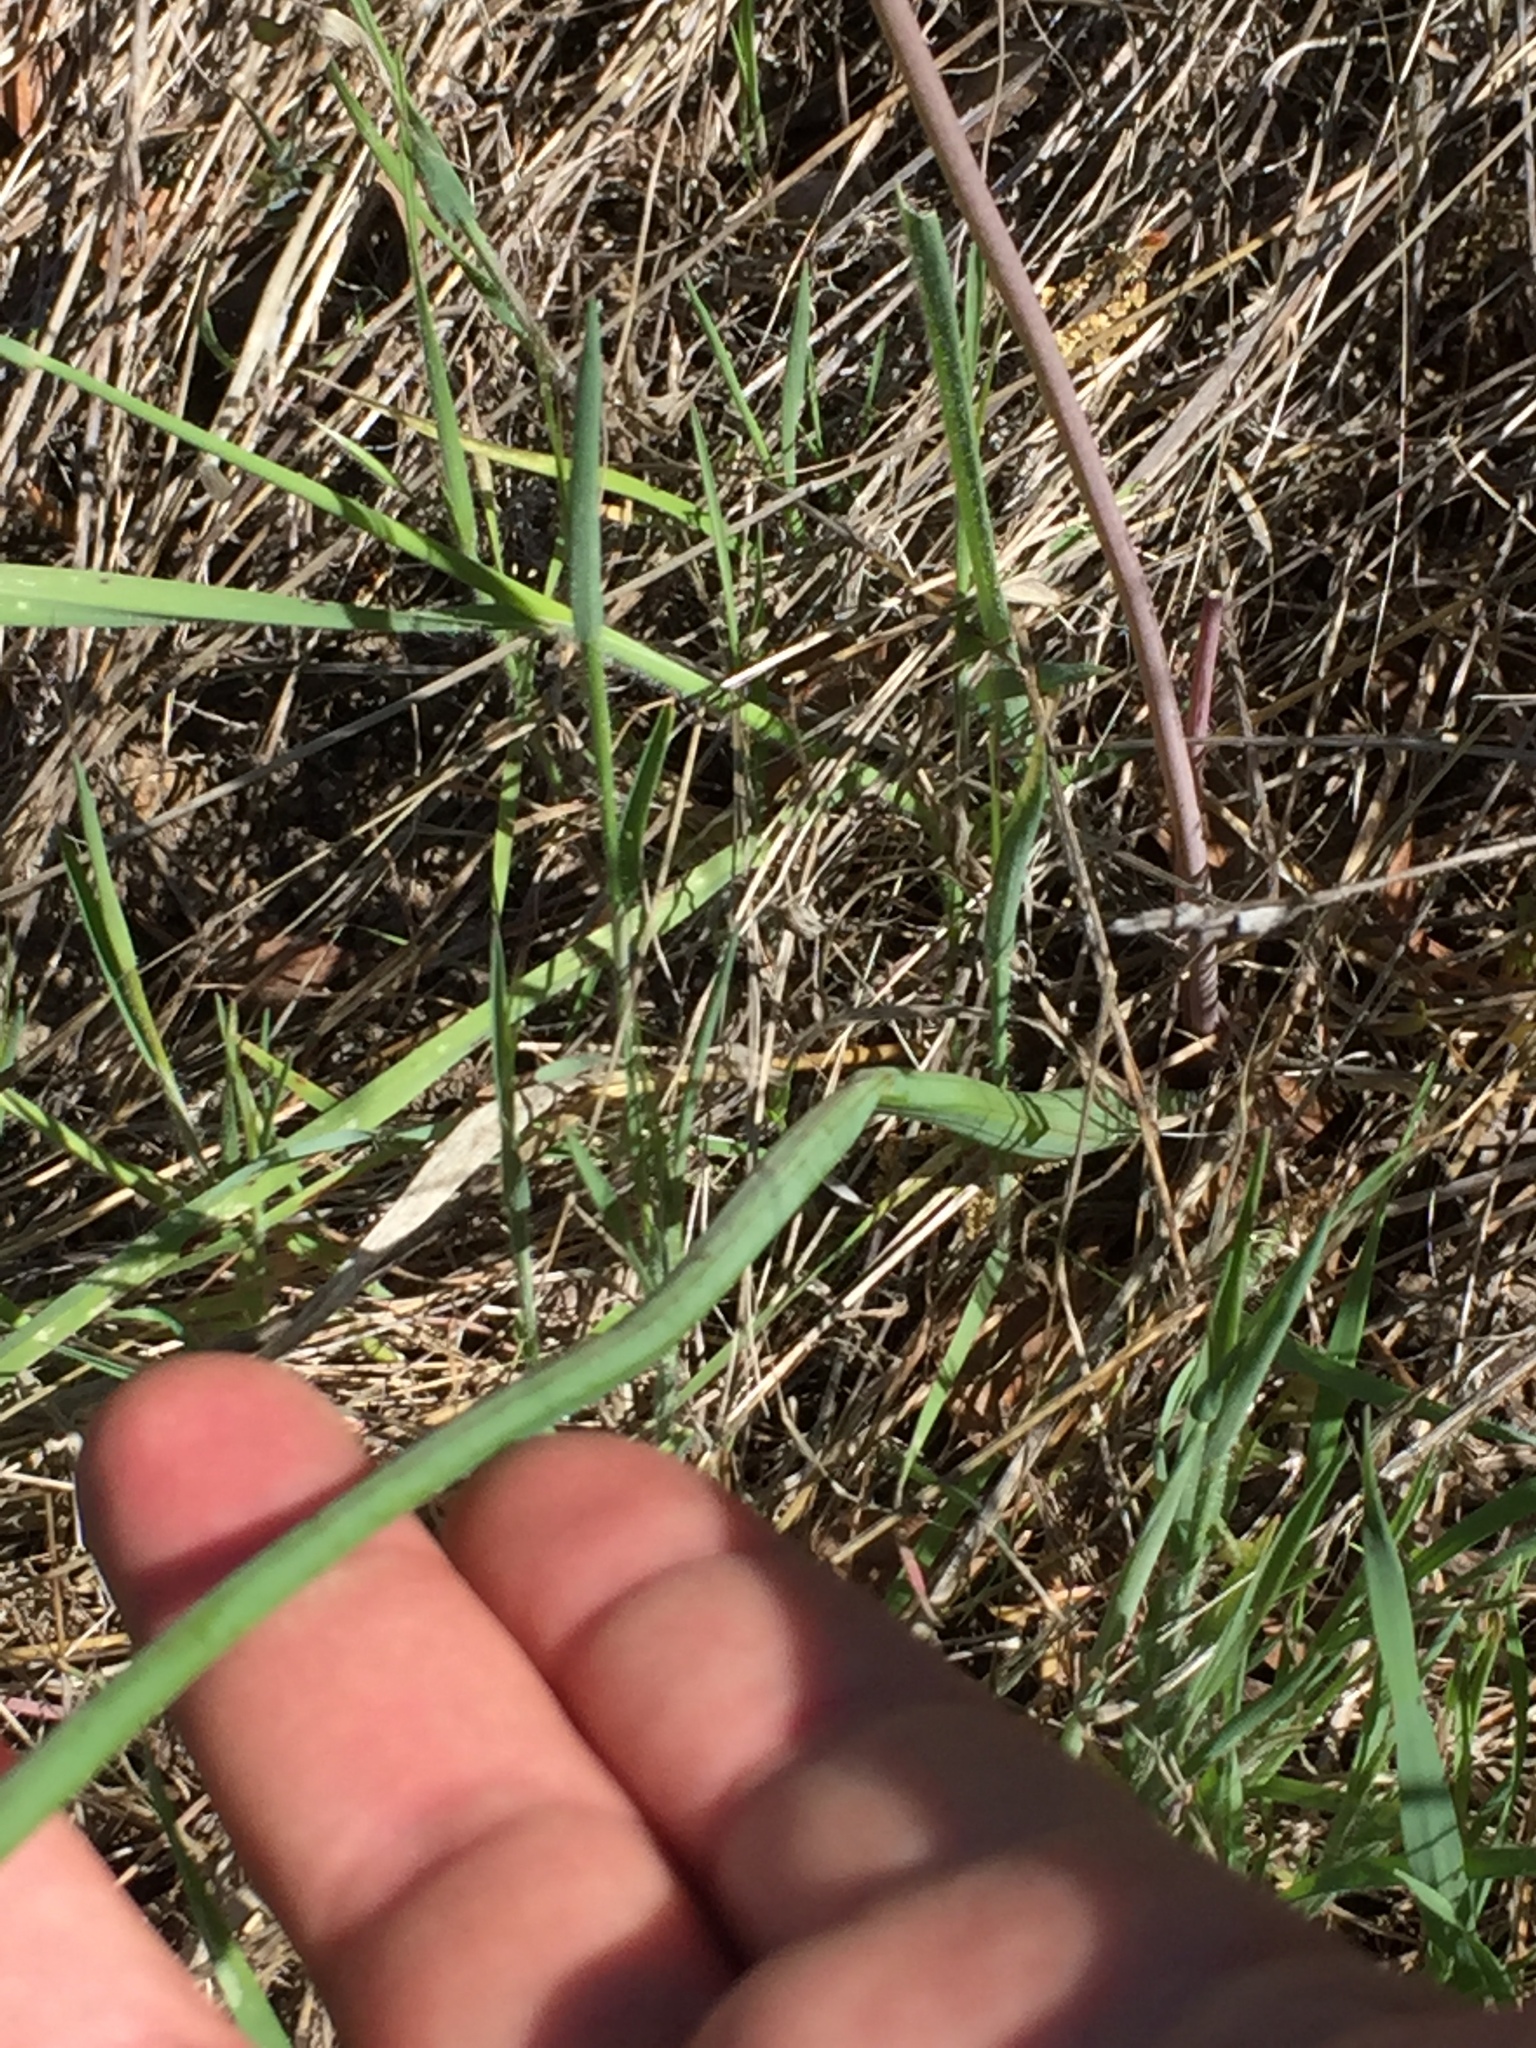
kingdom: Plantae
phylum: Tracheophyta
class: Liliopsida
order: Asparagales
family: Asparagaceae
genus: Dipterostemon
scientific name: Dipterostemon capitatus
